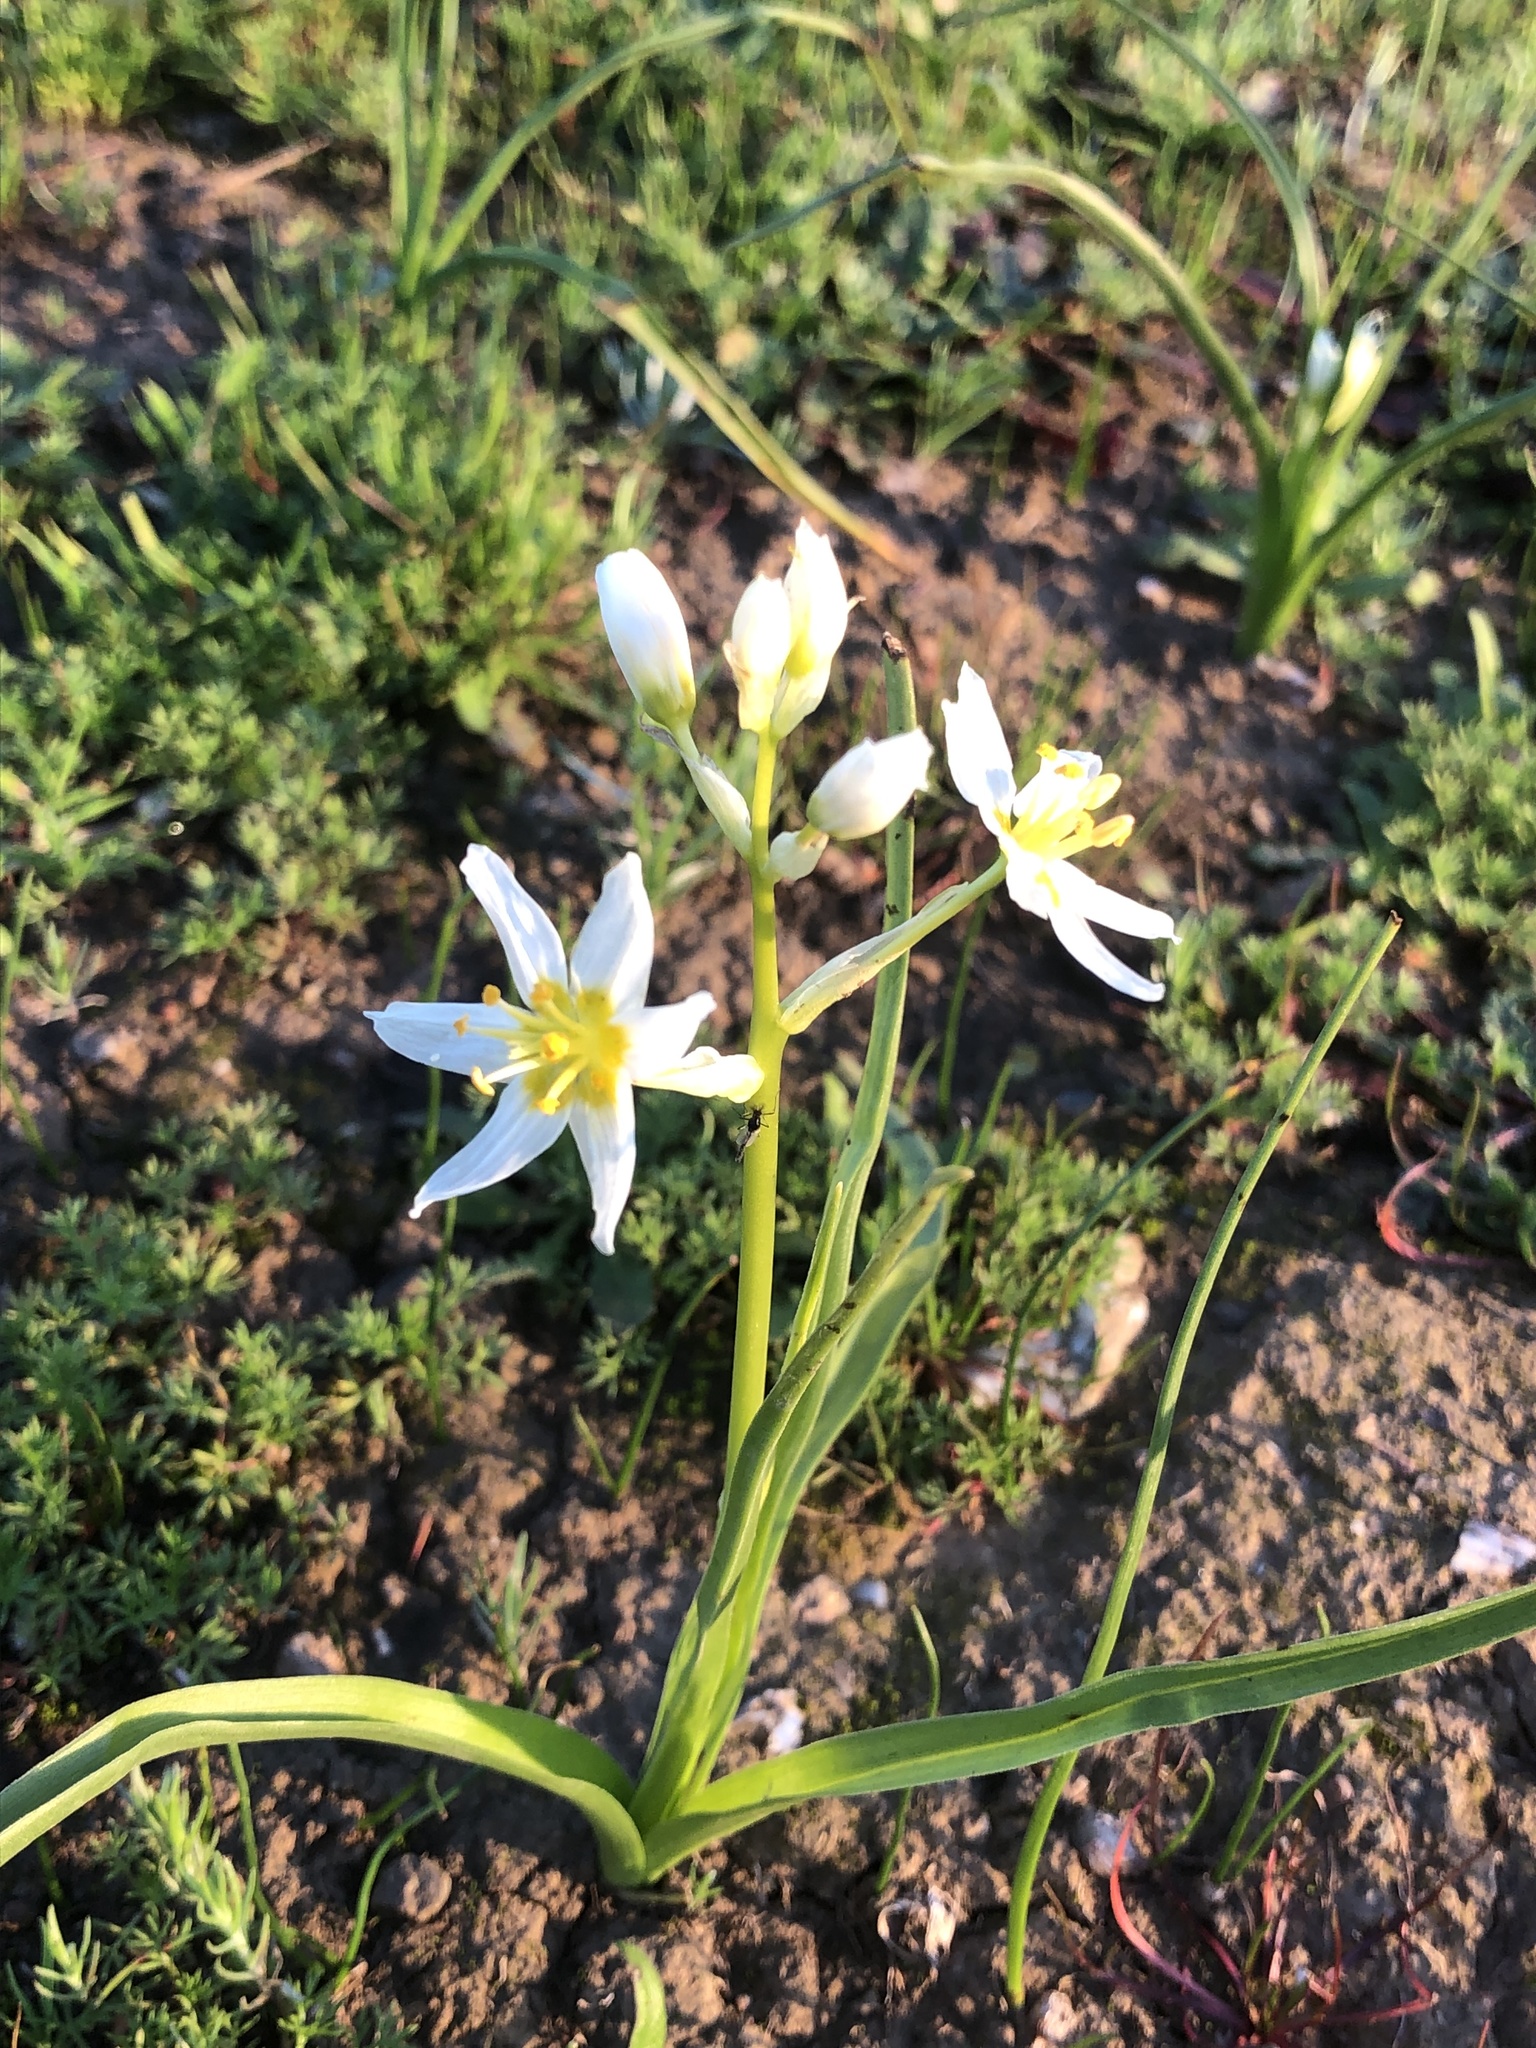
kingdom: Plantae
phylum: Tracheophyta
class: Liliopsida
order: Liliales
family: Melanthiaceae
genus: Toxicoscordion
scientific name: Toxicoscordion fremontii
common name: Fremont's death camas
